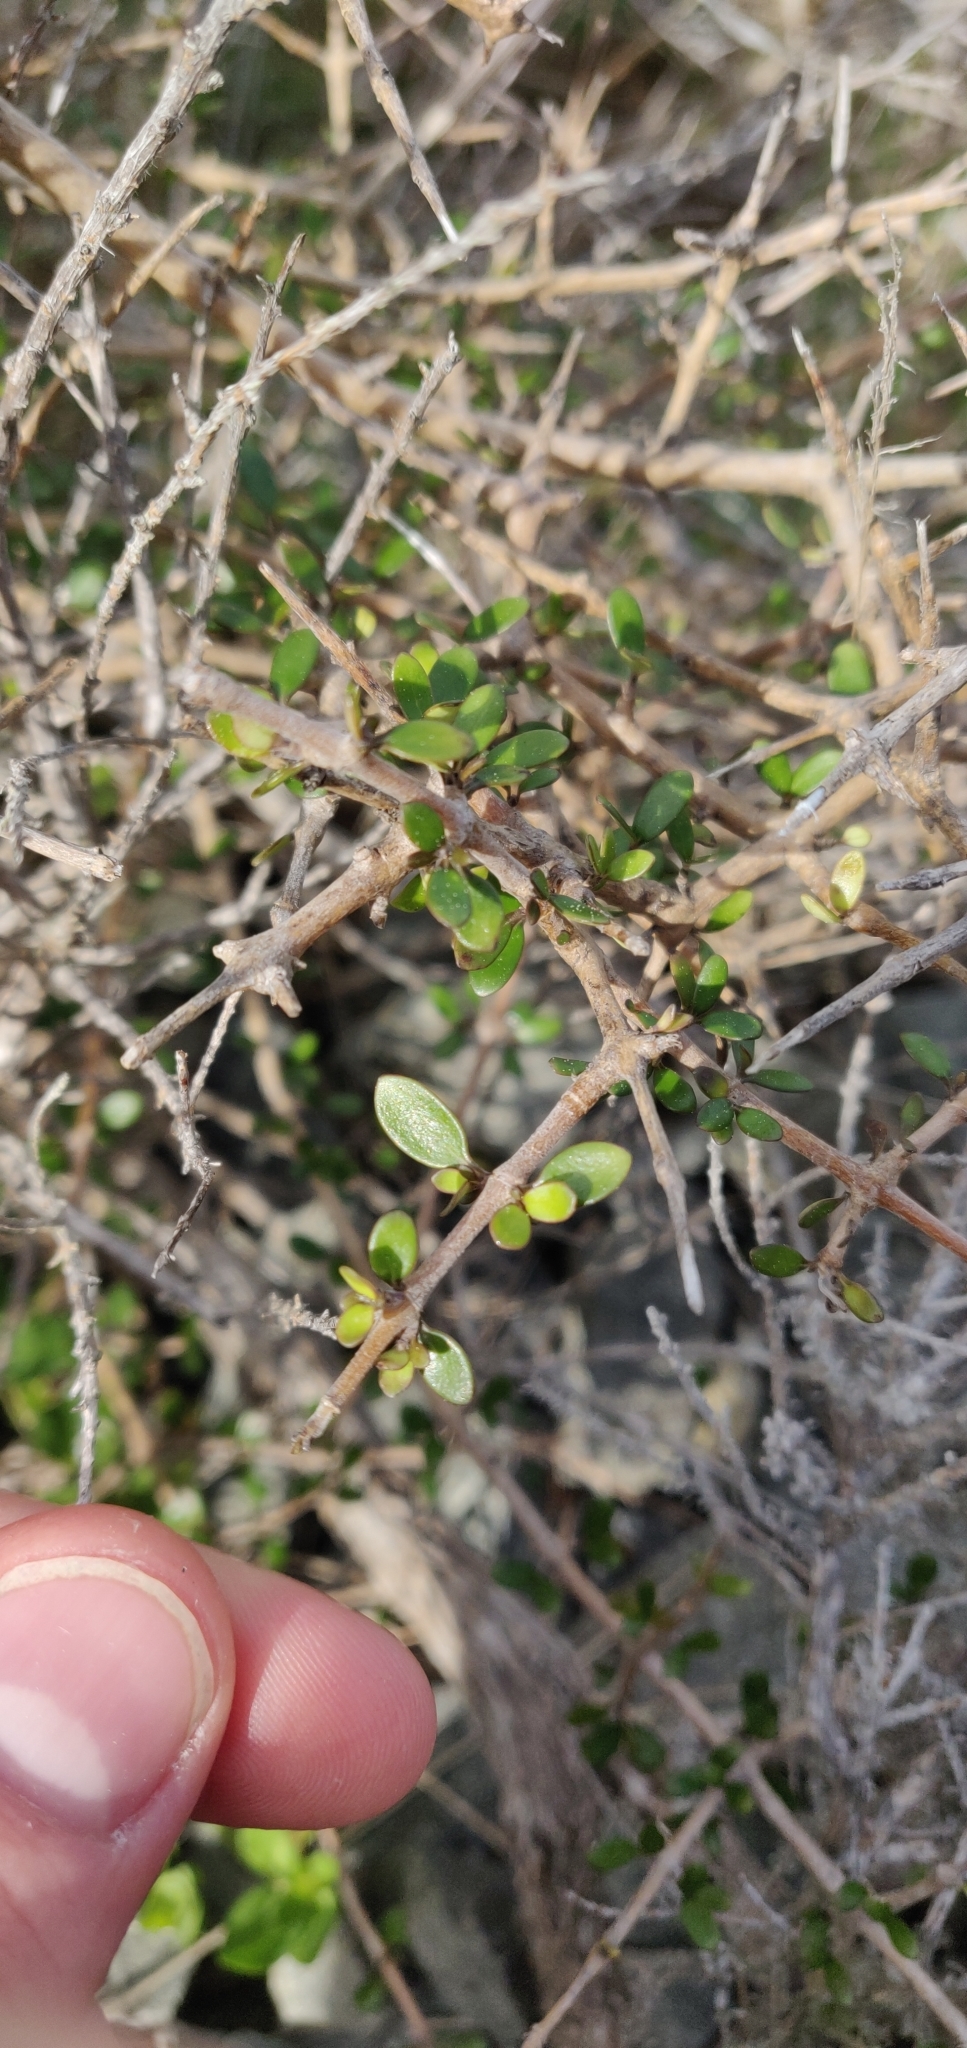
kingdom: Plantae
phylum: Tracheophyta
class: Magnoliopsida
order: Gentianales
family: Rubiaceae
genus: Coprosma
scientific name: Coprosma rhamnoides
